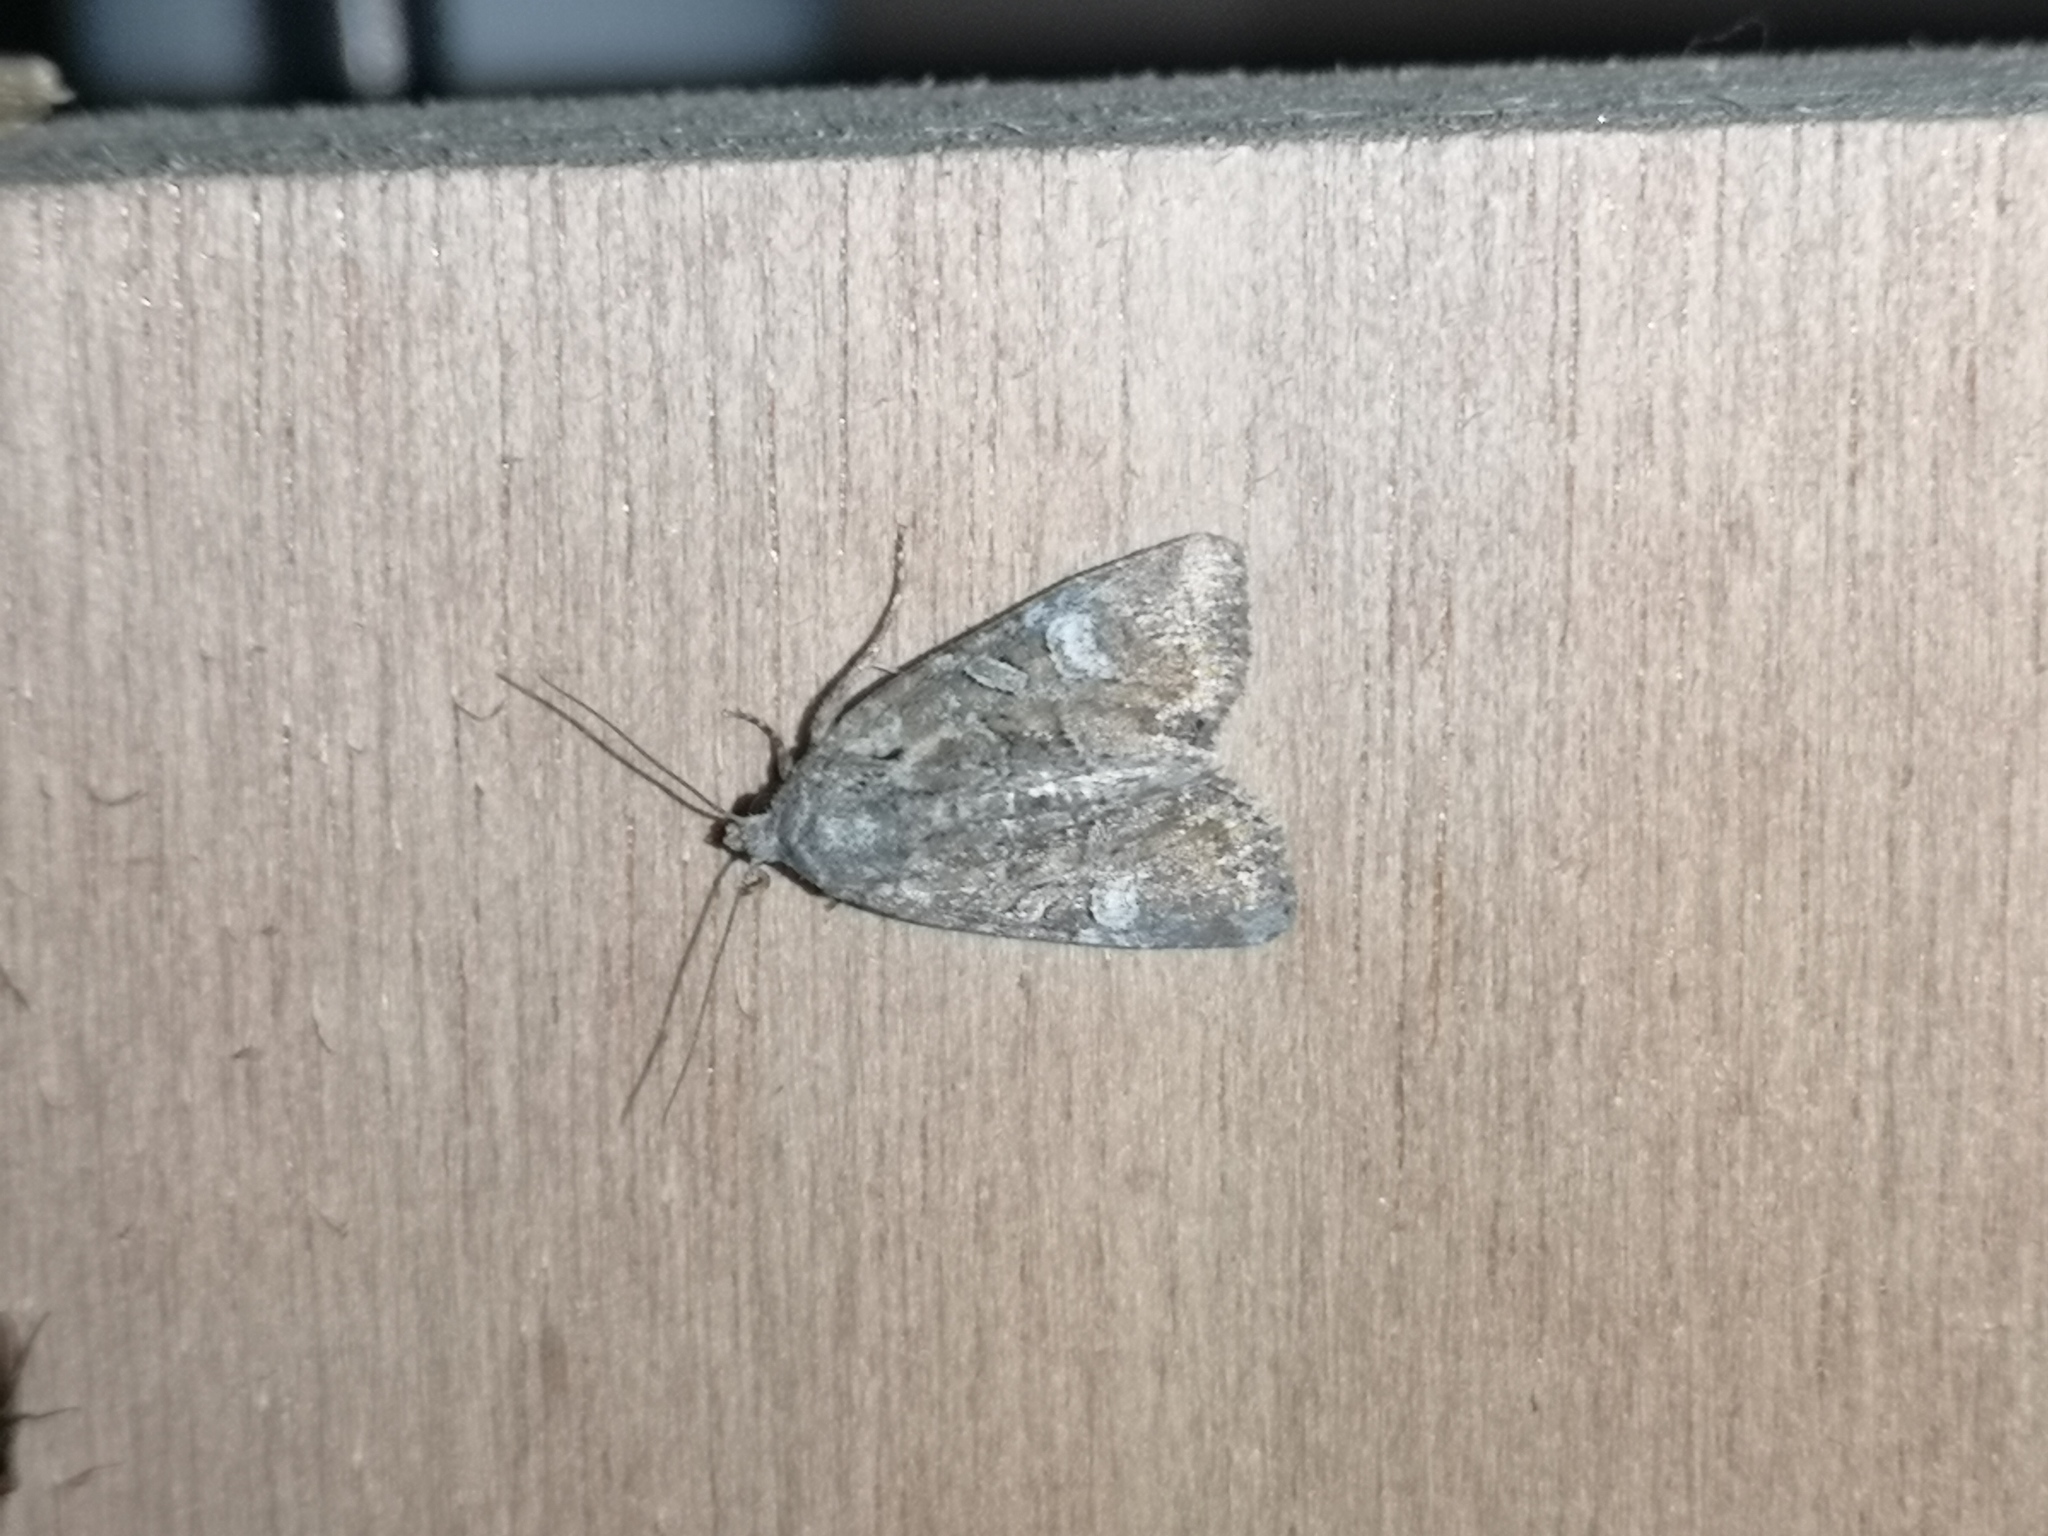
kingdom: Animalia
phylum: Arthropoda
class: Insecta
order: Lepidoptera
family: Noctuidae
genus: Mesapamea
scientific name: Mesapamea
